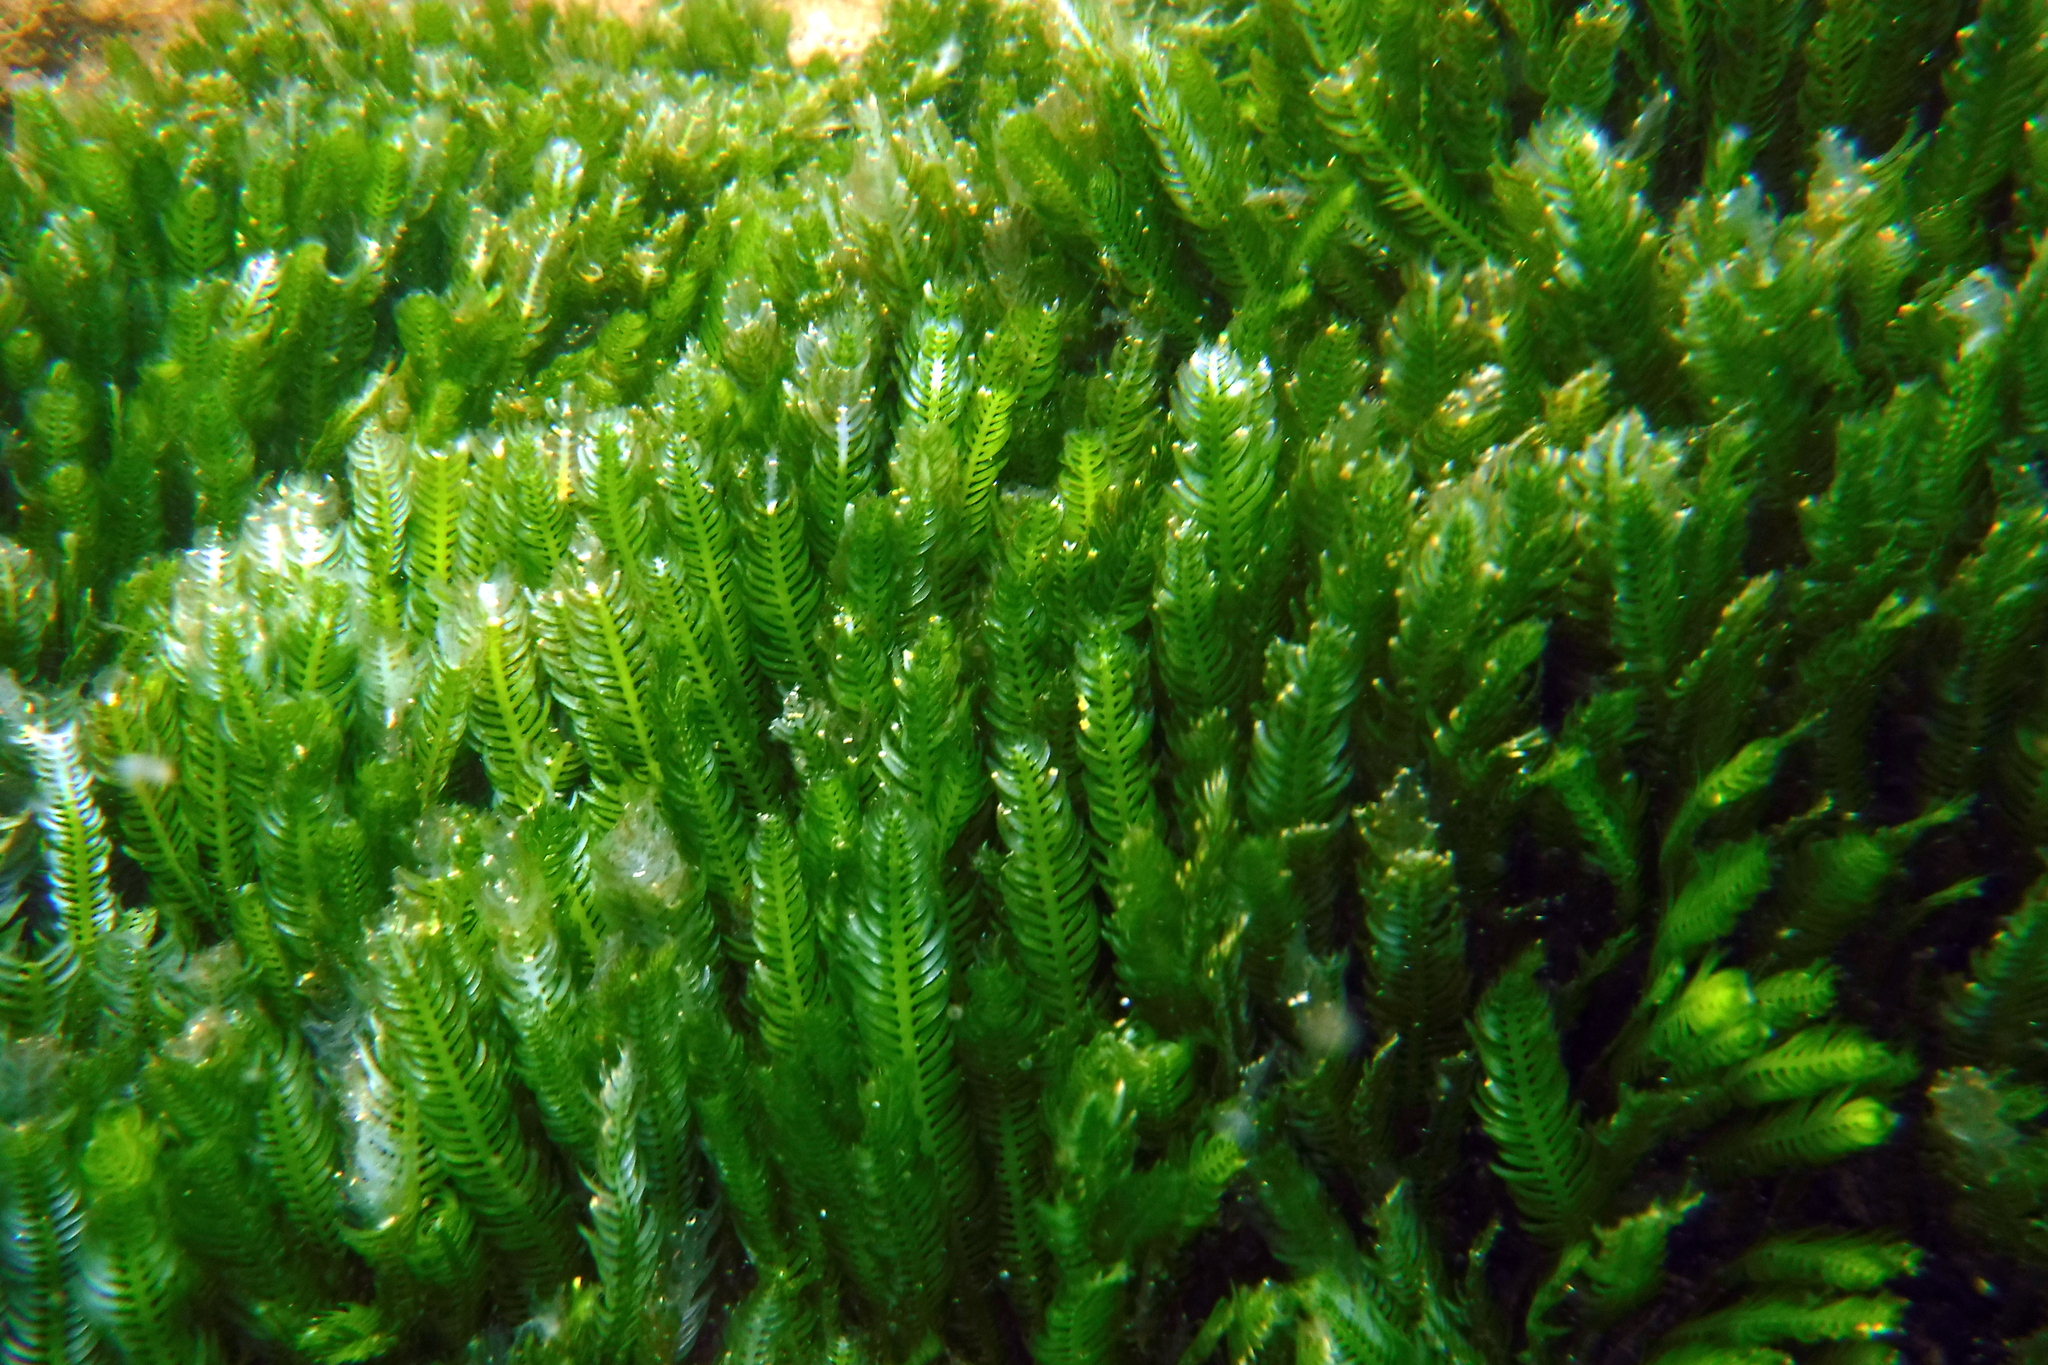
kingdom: Plantae
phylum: Chlorophyta
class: Ulvophyceae
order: Bryopsidales
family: Caulerpaceae
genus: Caulerpa
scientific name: Caulerpa sertularioides
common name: Green feather algae
